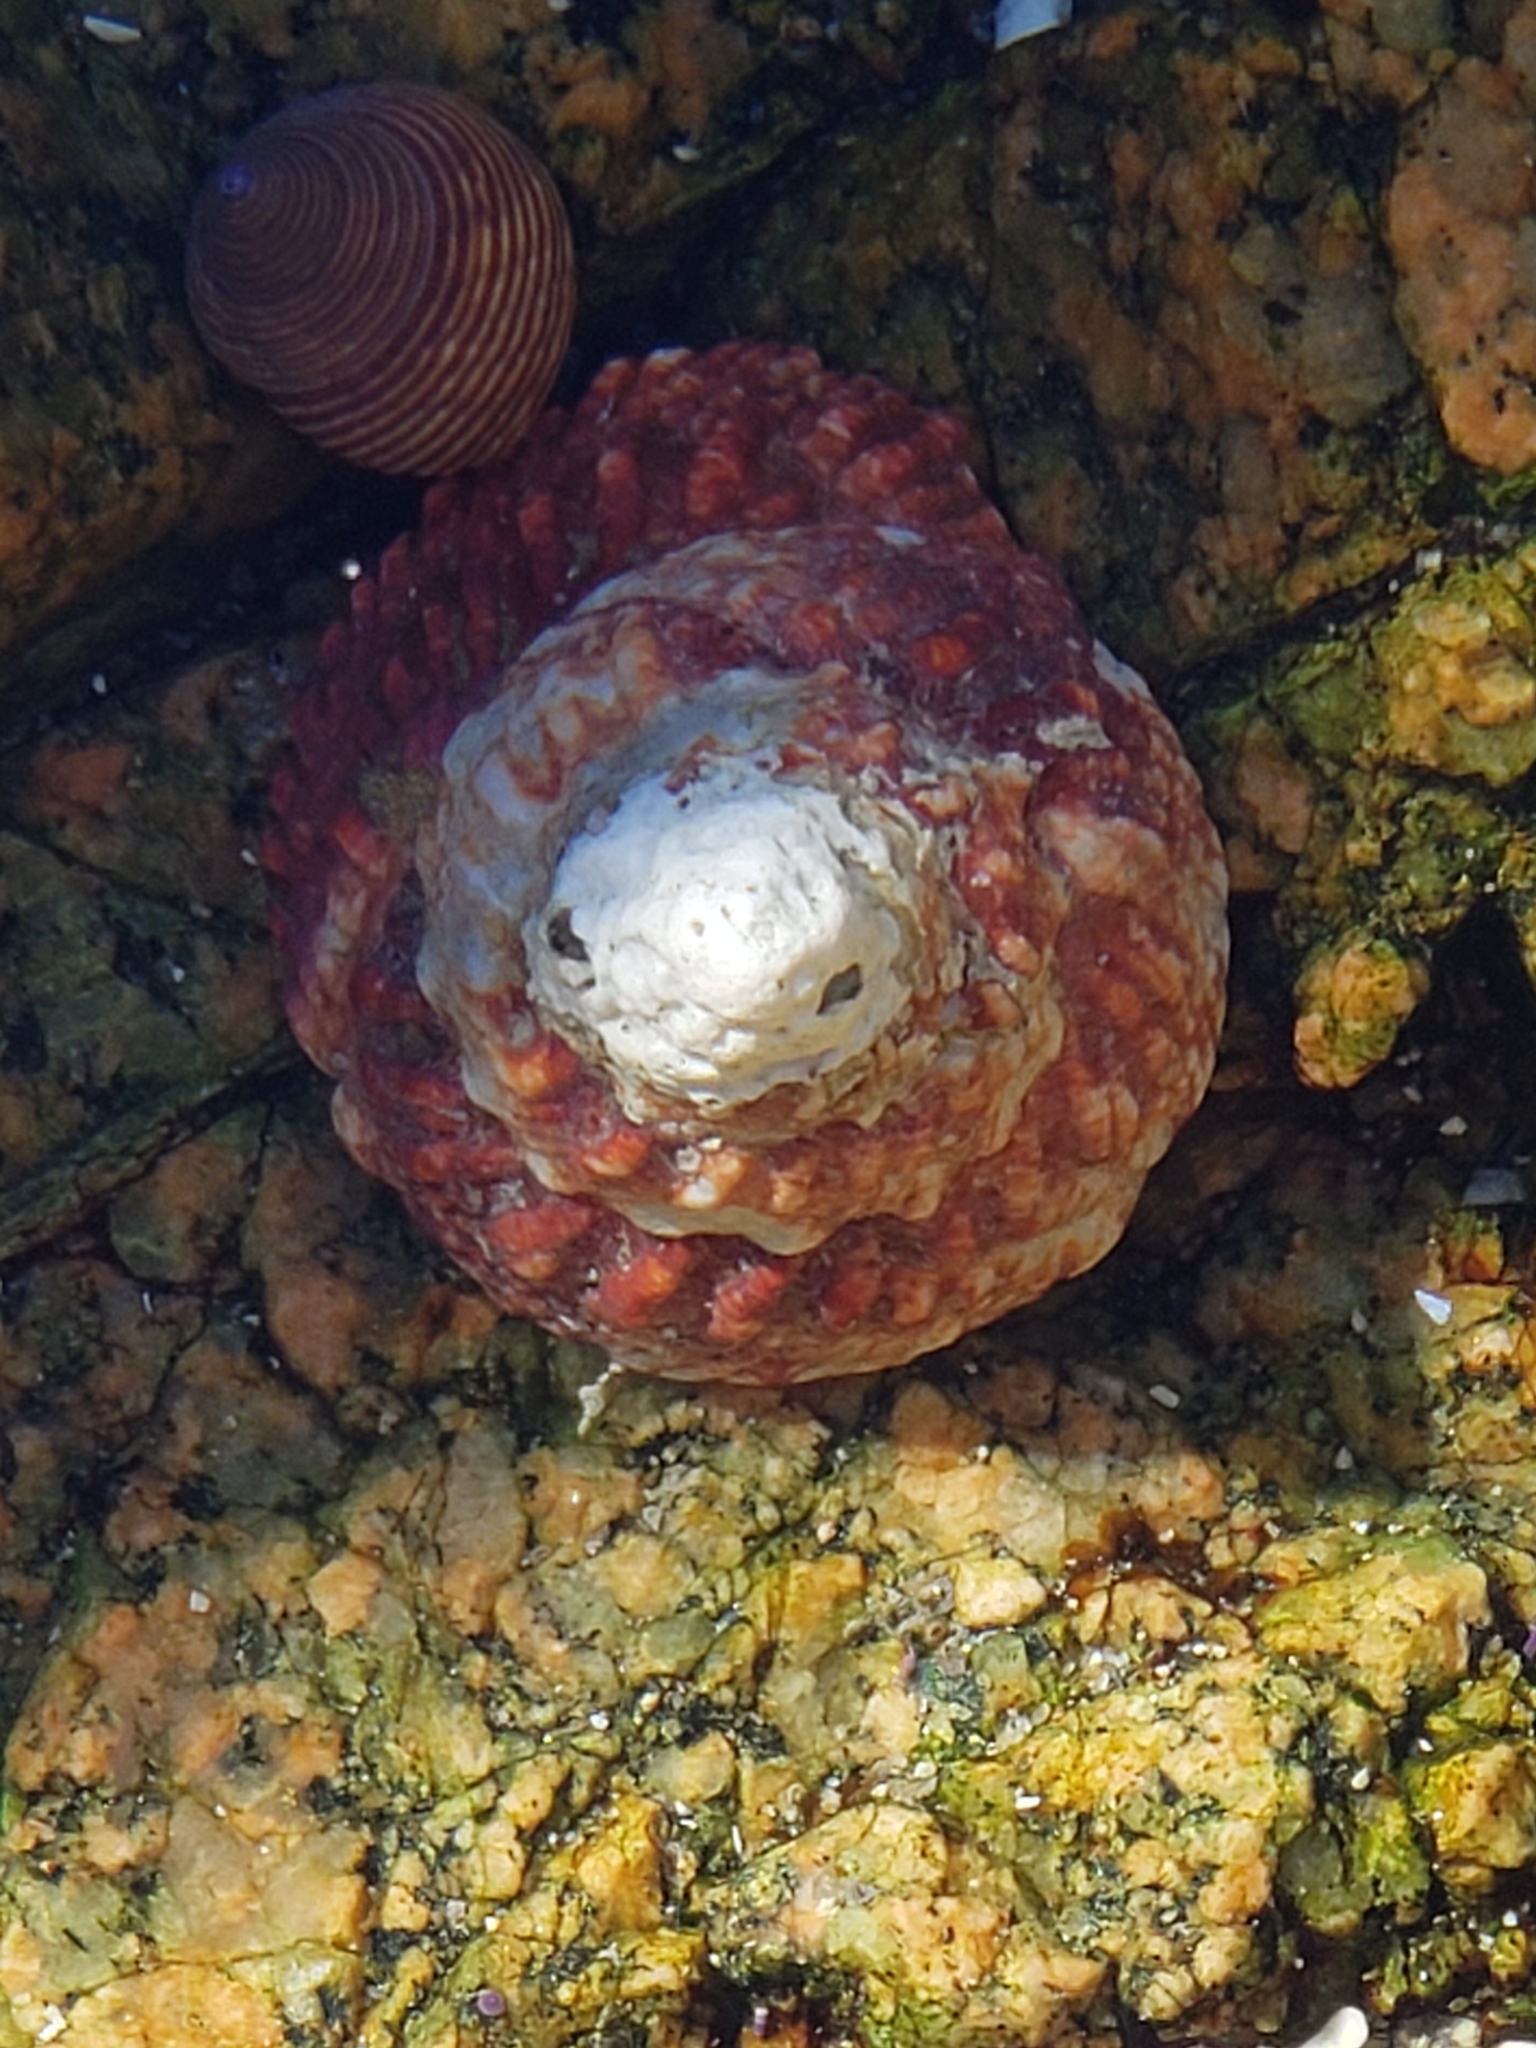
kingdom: Animalia
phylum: Mollusca
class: Gastropoda
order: Trochida
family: Turbinidae
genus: Pomaulax
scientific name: Pomaulax gibberosus
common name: Red turban
